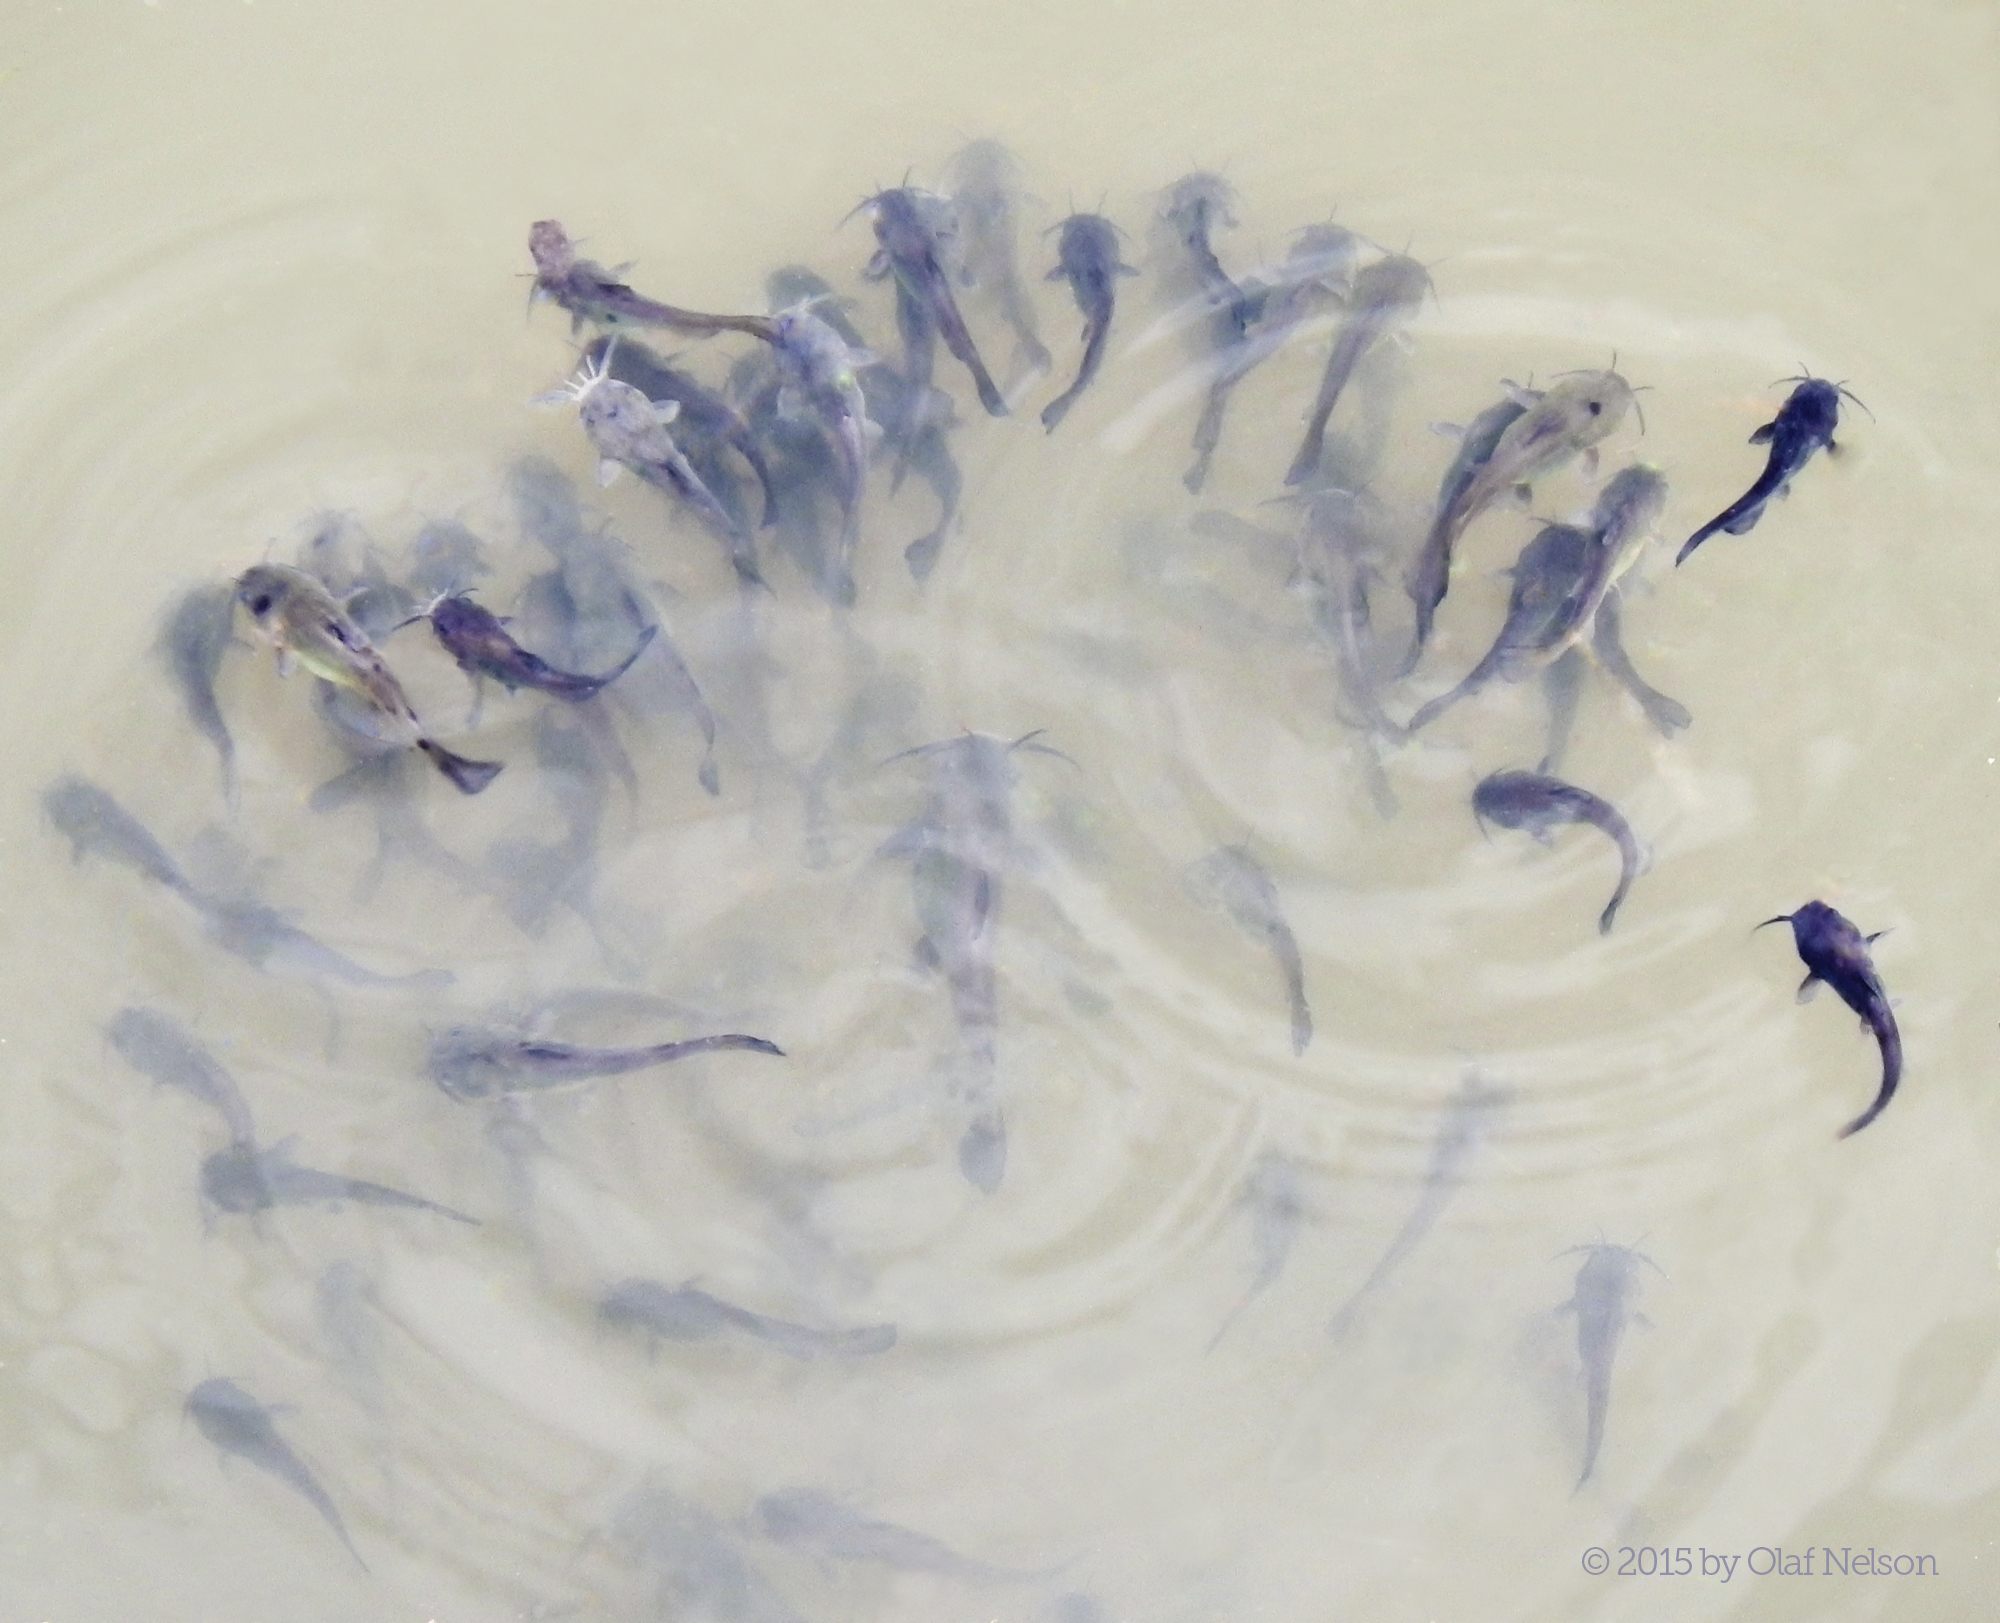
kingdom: Animalia
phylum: Chordata
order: Siluriformes
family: Ictaluridae
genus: Ameiurus
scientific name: Ameiurus melas
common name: Black bullhead
